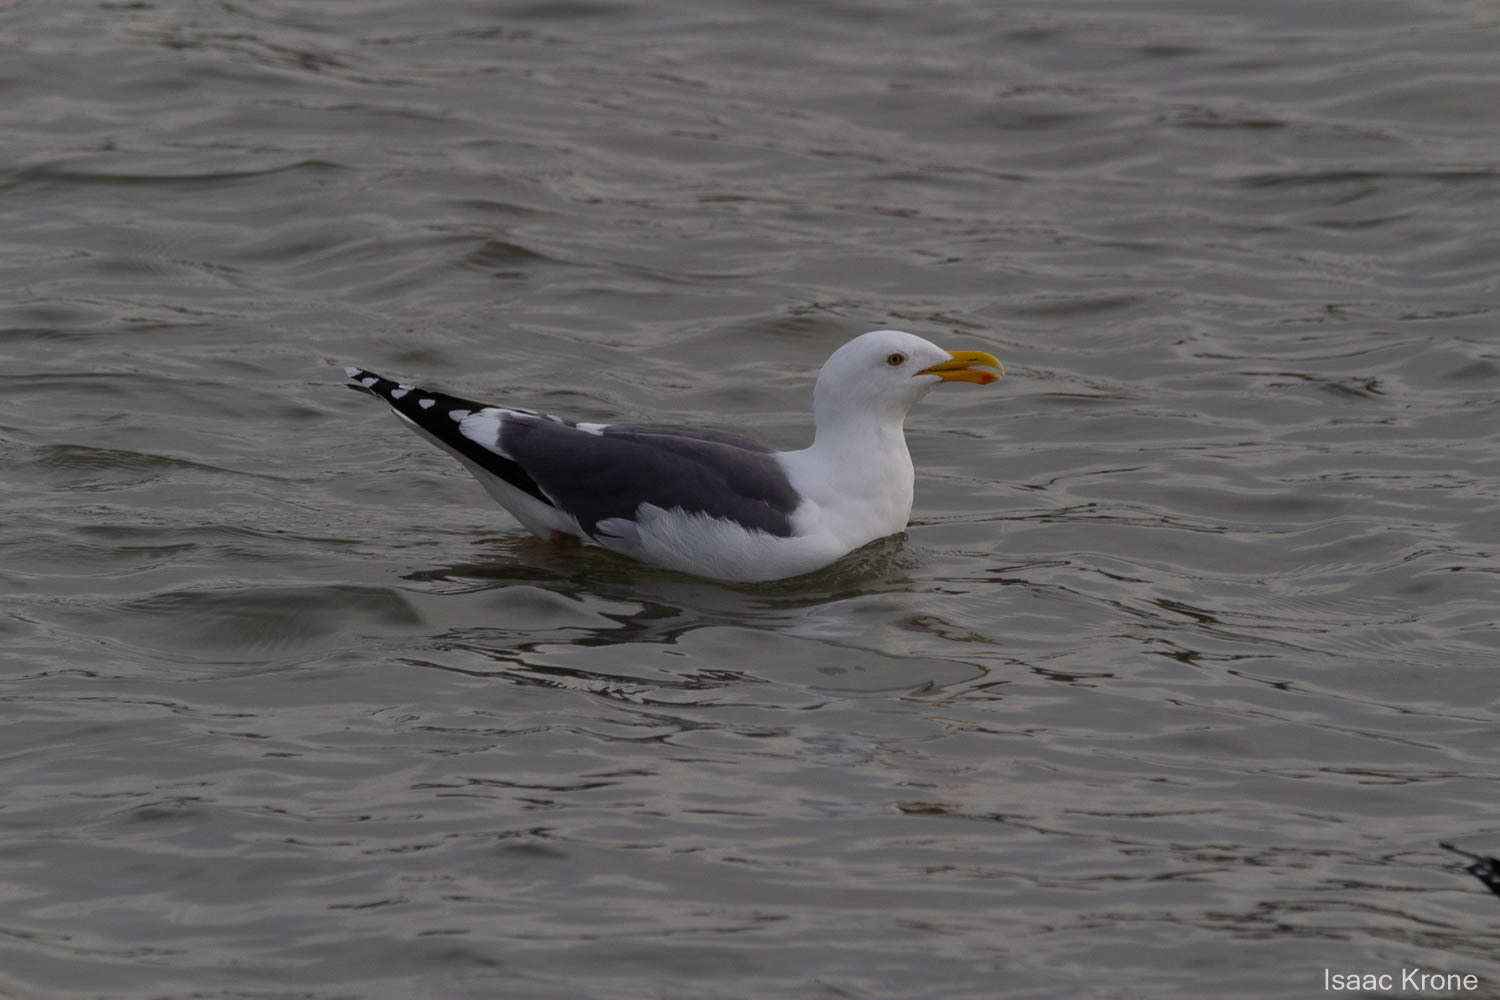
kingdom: Animalia
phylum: Chordata
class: Aves
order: Charadriiformes
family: Laridae
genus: Larus
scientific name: Larus occidentalis
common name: Western gull
